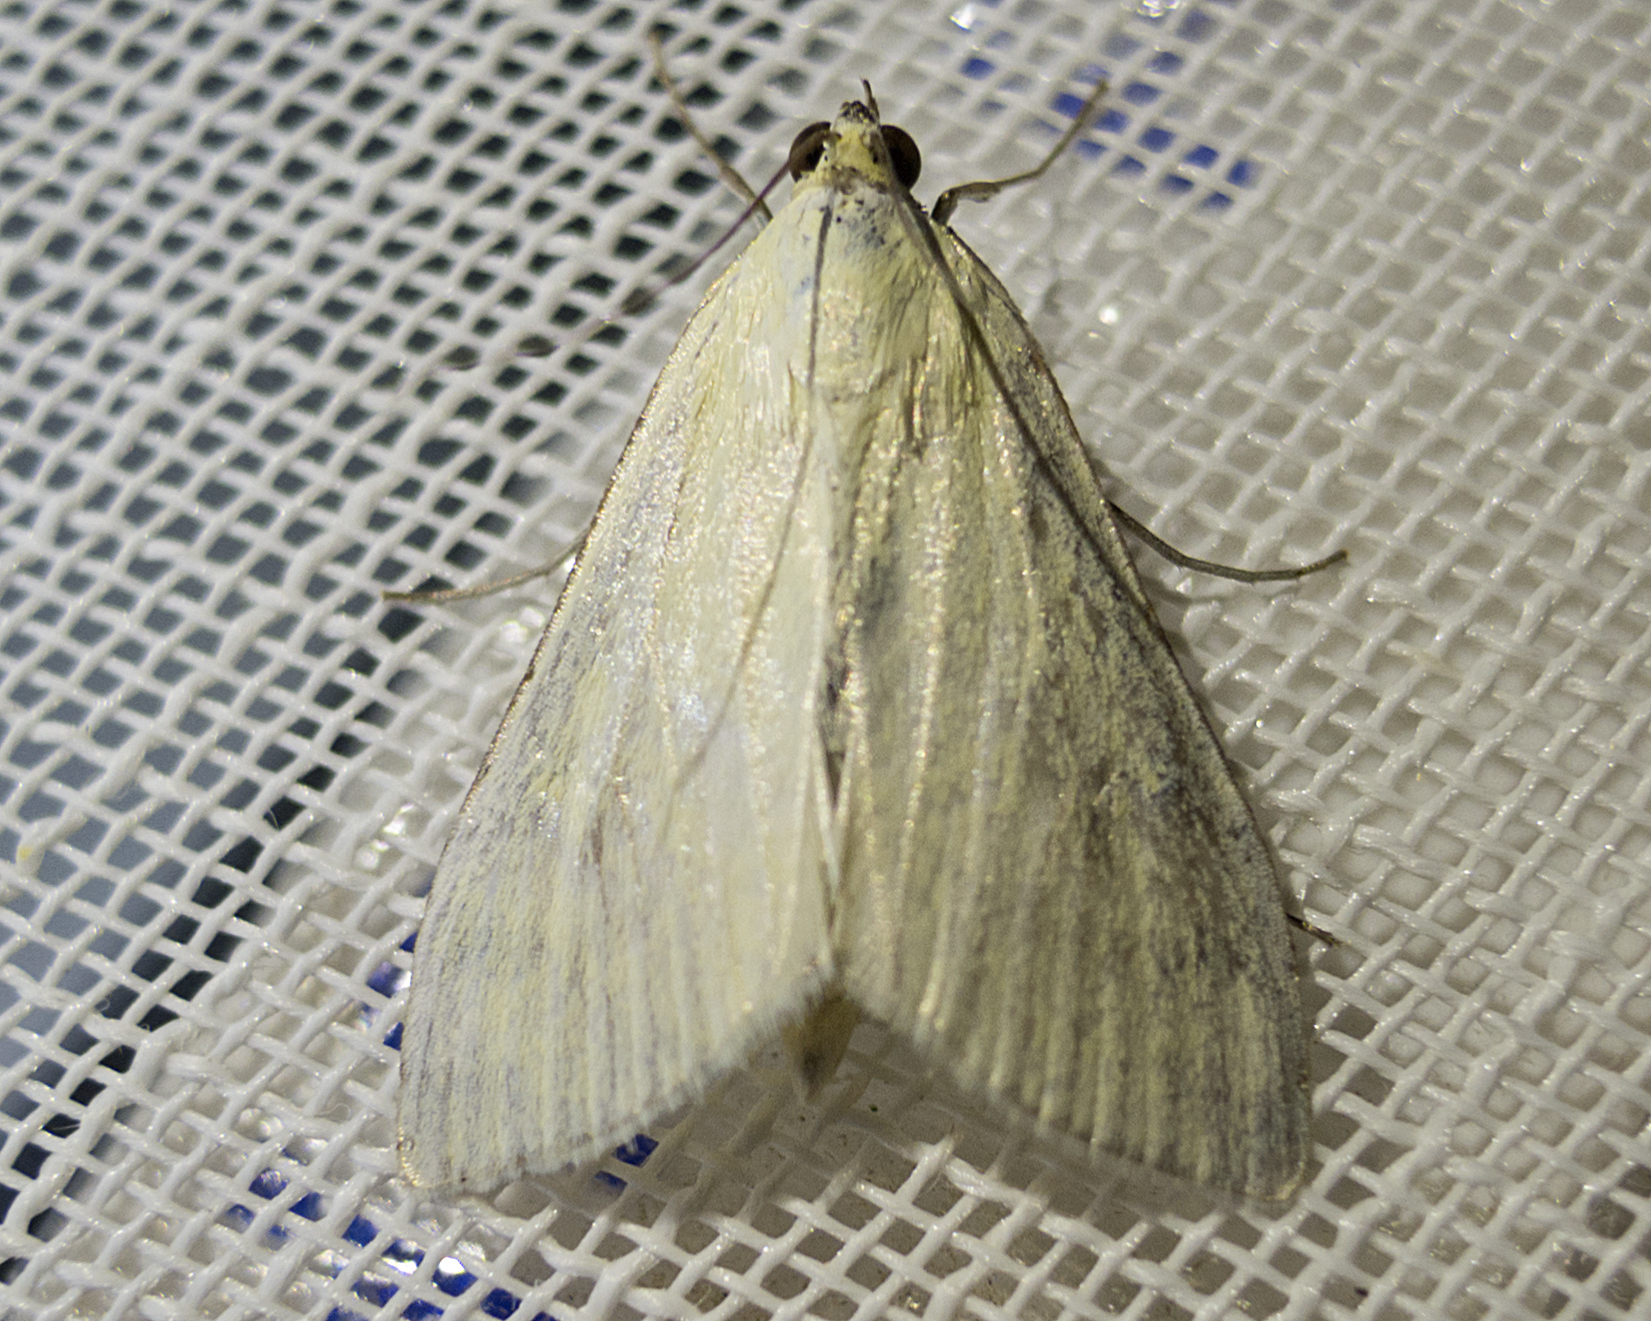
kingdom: Animalia
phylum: Arthropoda
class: Insecta
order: Lepidoptera
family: Crambidae
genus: Sitochroa
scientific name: Sitochroa palealis
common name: Greenish-yellow sitochroa moth
